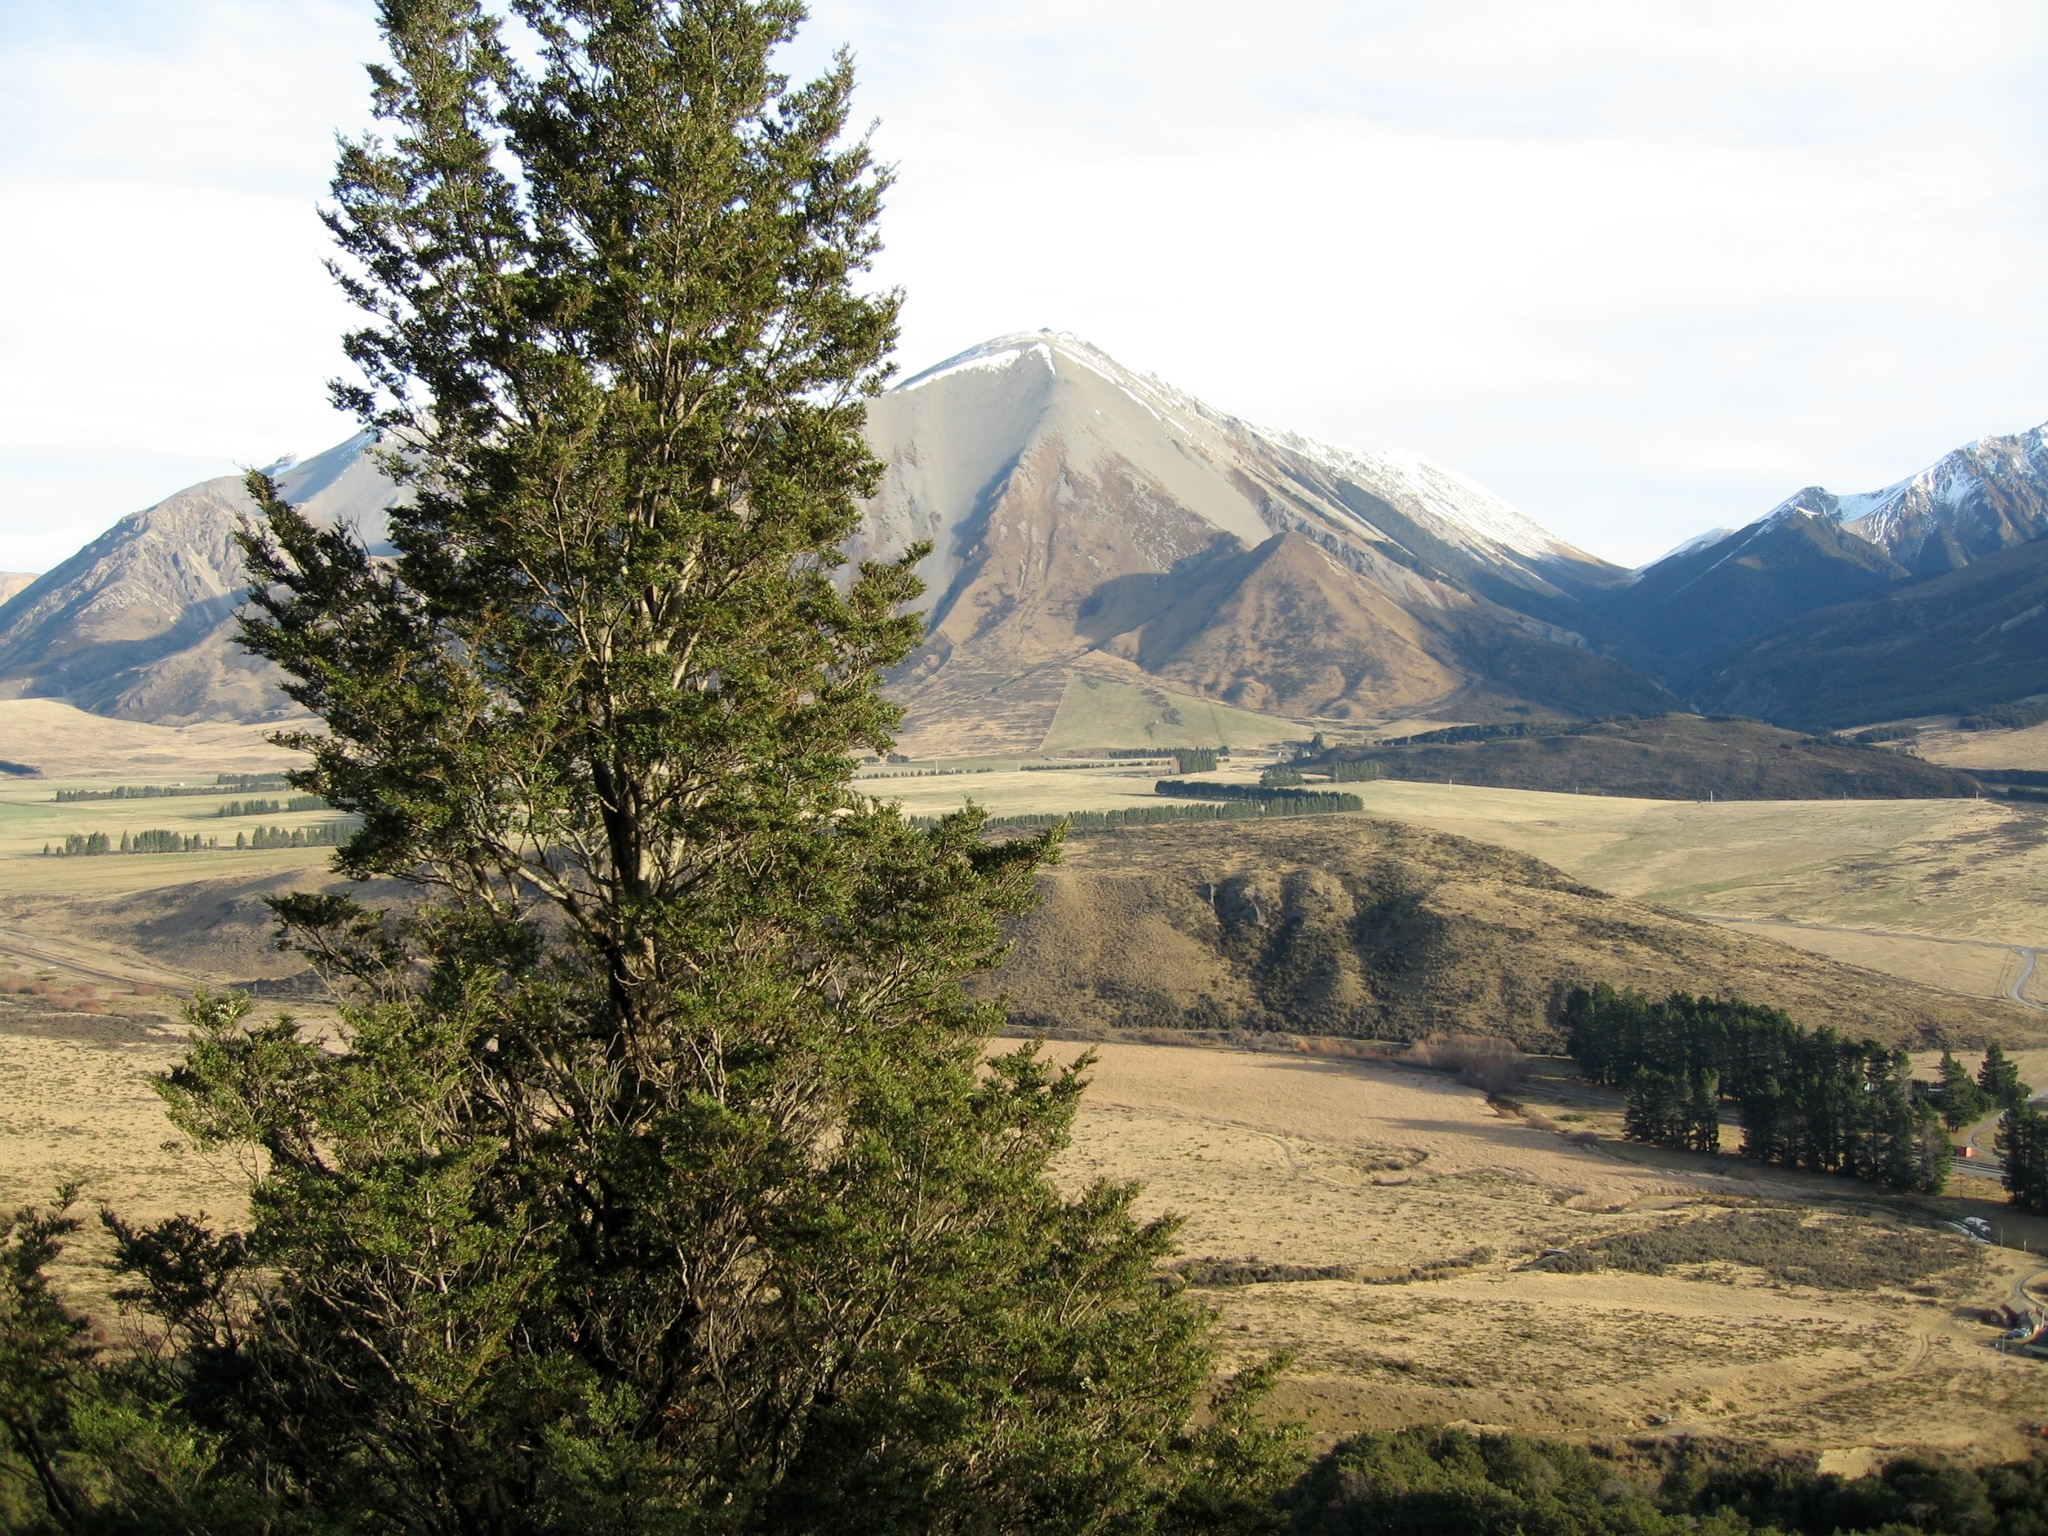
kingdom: Plantae
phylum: Tracheophyta
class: Magnoliopsida
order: Fagales
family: Nothofagaceae
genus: Nothofagus
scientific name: Nothofagus cliffortioides
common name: Mountain beech
